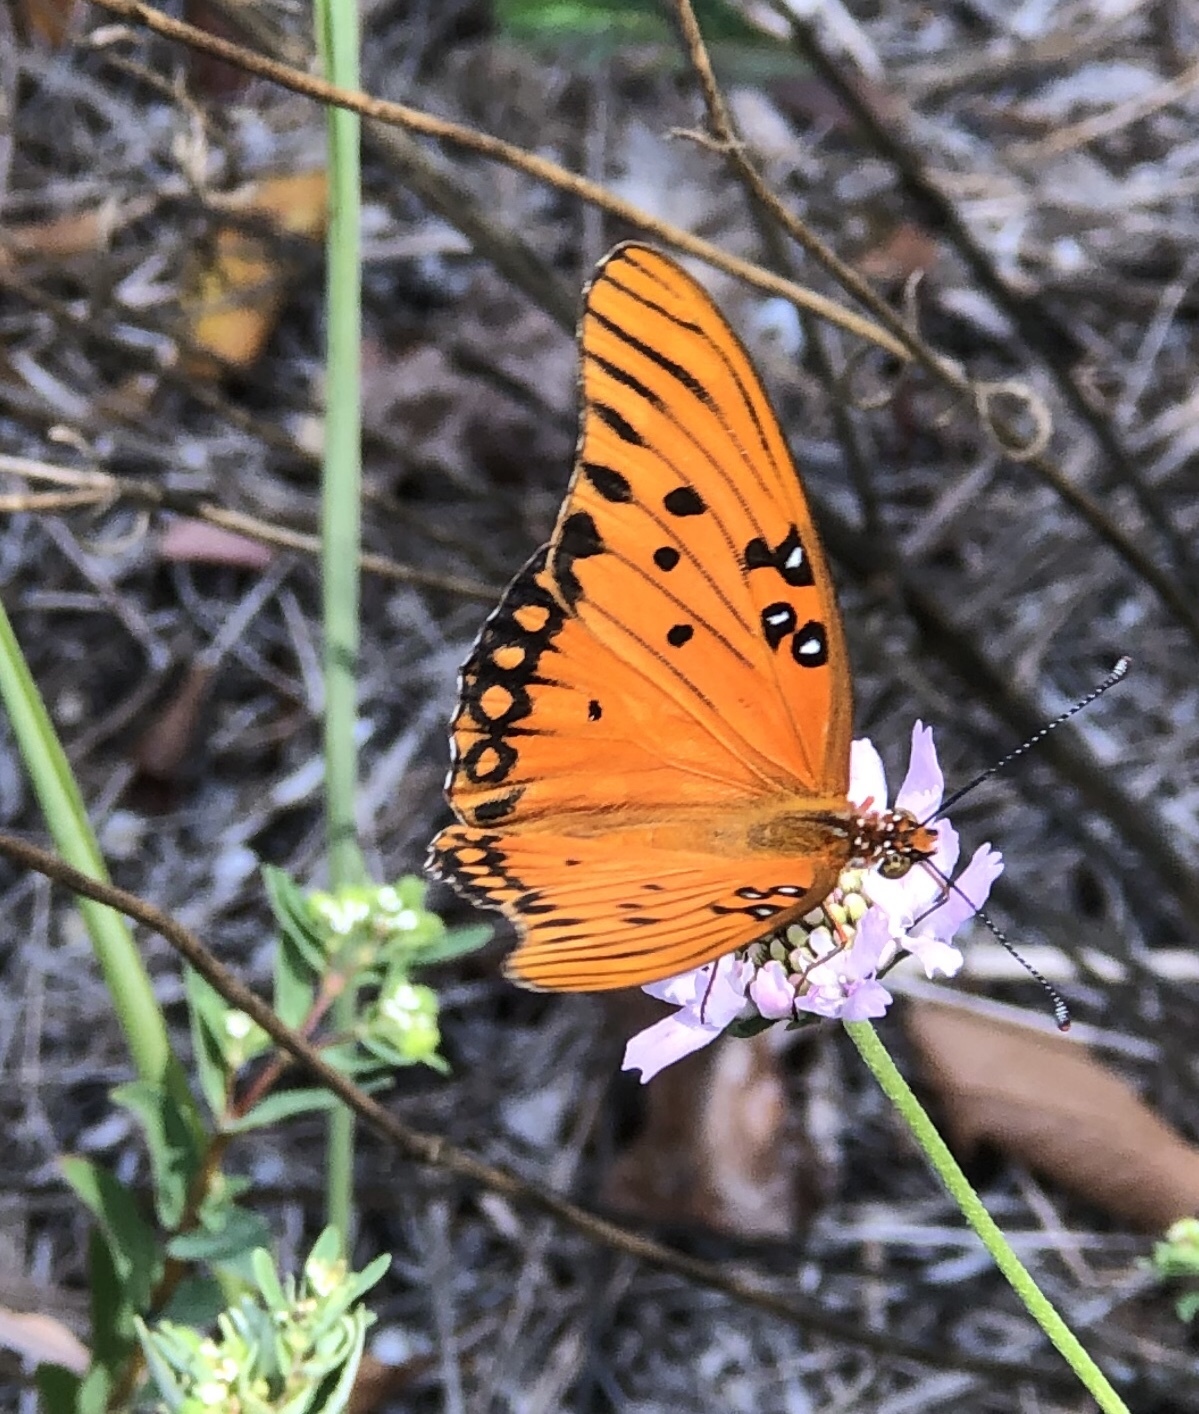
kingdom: Animalia
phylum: Arthropoda
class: Insecta
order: Lepidoptera
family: Nymphalidae
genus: Dione
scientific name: Dione vanillae
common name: Gulf fritillary
